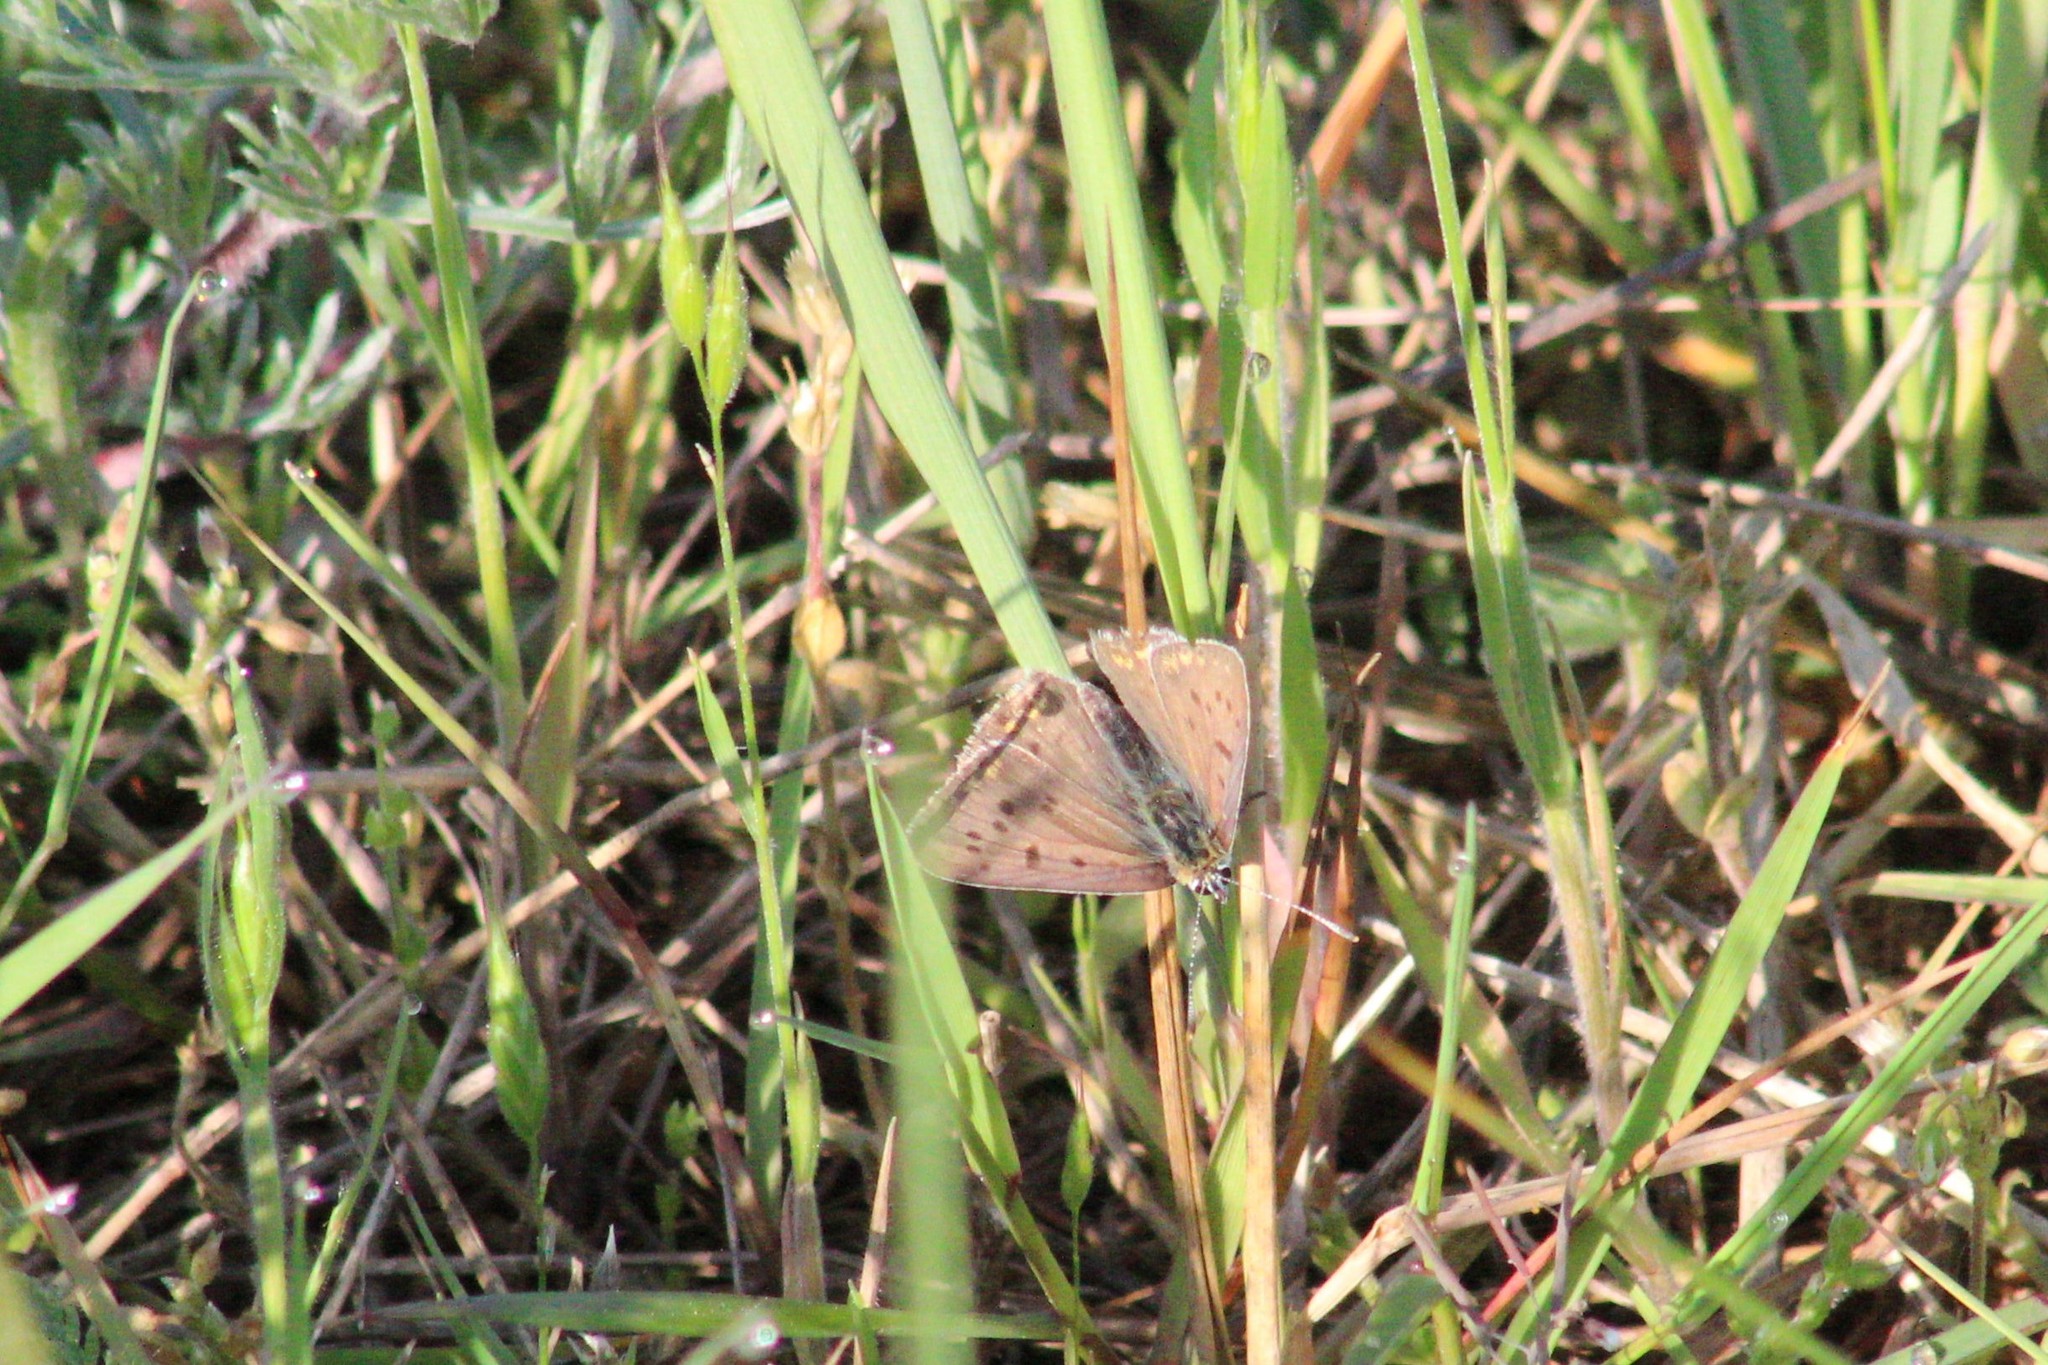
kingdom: Animalia
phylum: Arthropoda
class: Insecta
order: Lepidoptera
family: Lycaenidae
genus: Loweia
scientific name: Loweia tityrus
